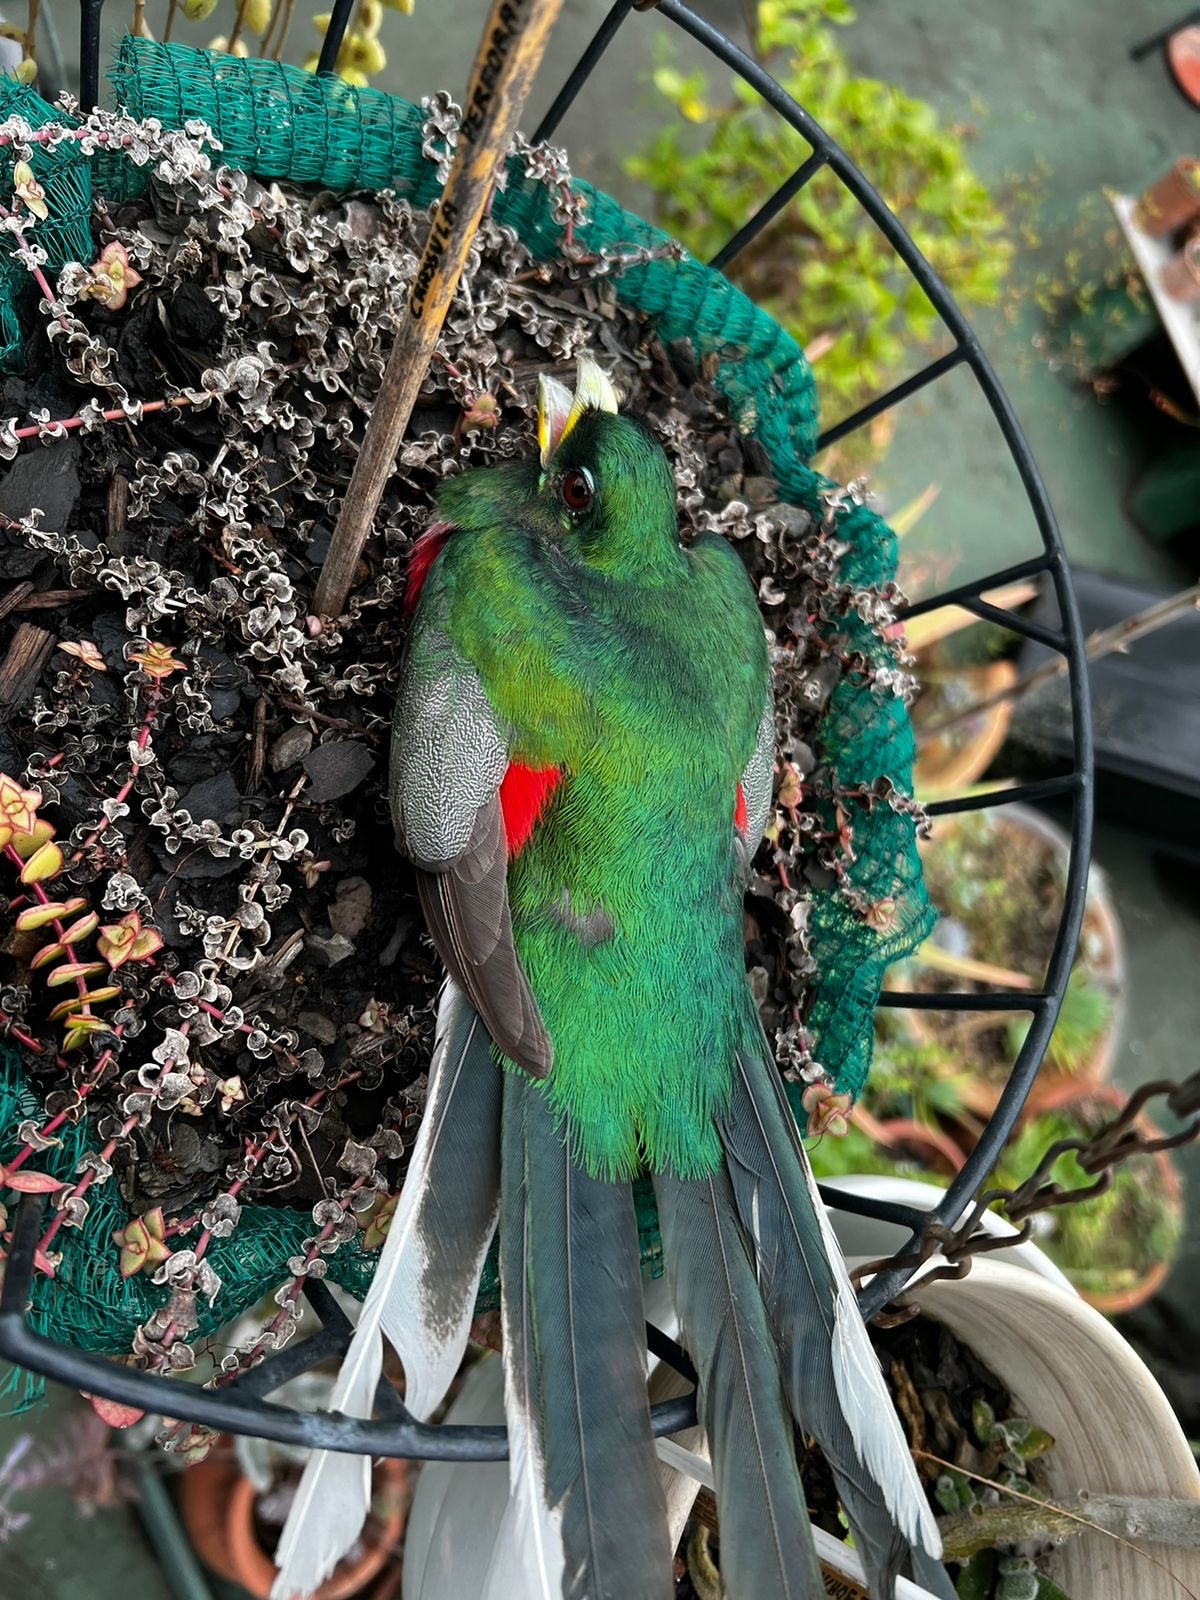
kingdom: Animalia
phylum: Chordata
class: Aves
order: Trogoniformes
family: Trogonidae
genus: Apaloderma
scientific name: Apaloderma narina
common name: Narina trogon
